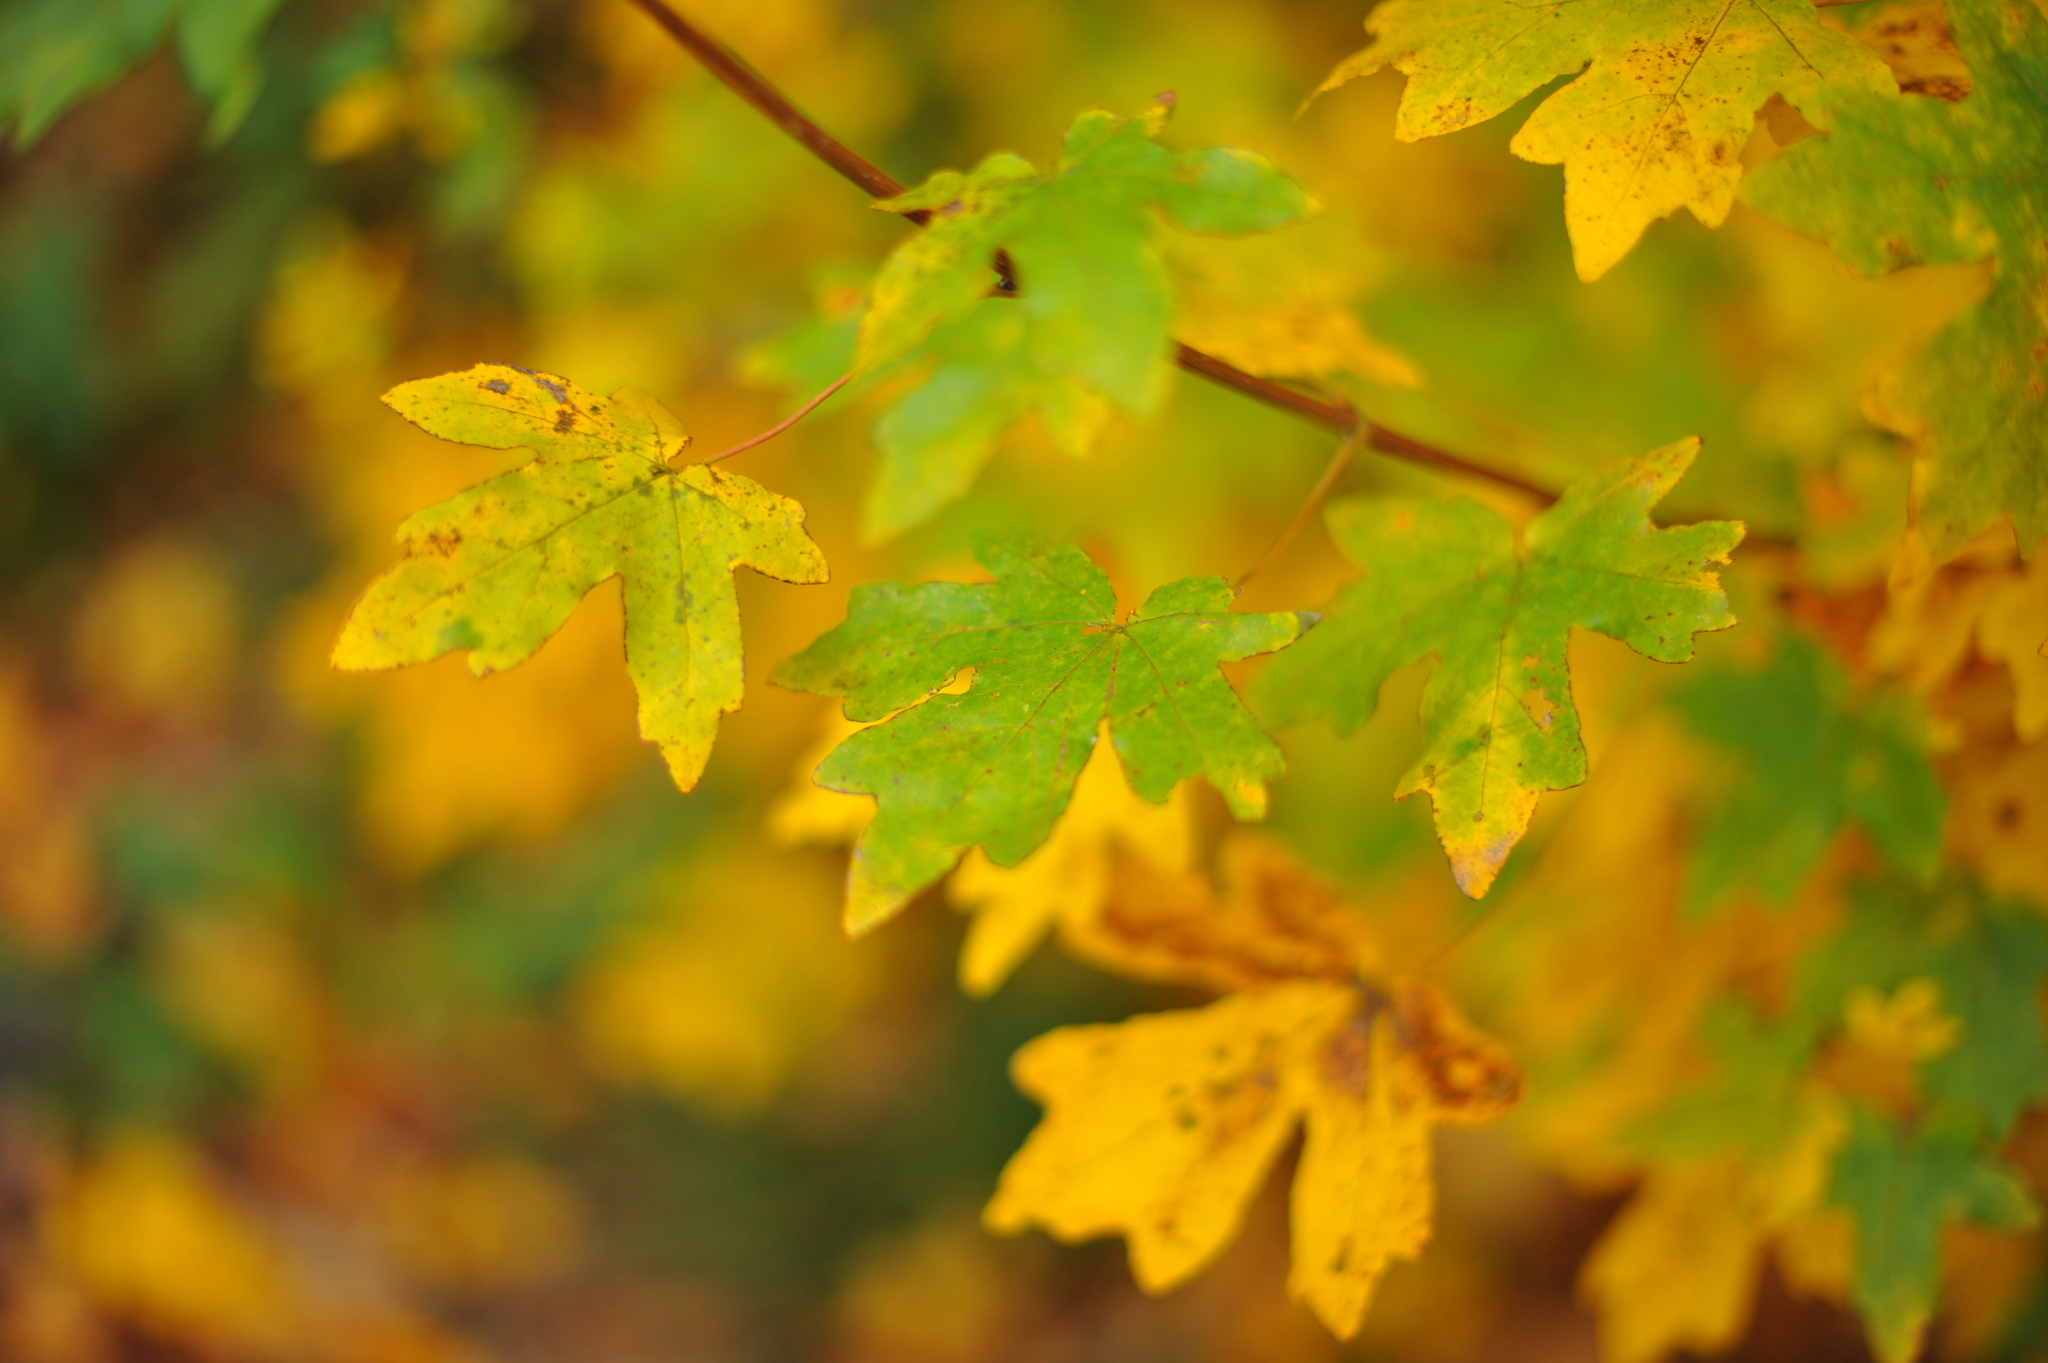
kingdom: Plantae
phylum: Tracheophyta
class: Magnoliopsida
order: Sapindales
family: Sapindaceae
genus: Acer
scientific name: Acer campestre
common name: Field maple
